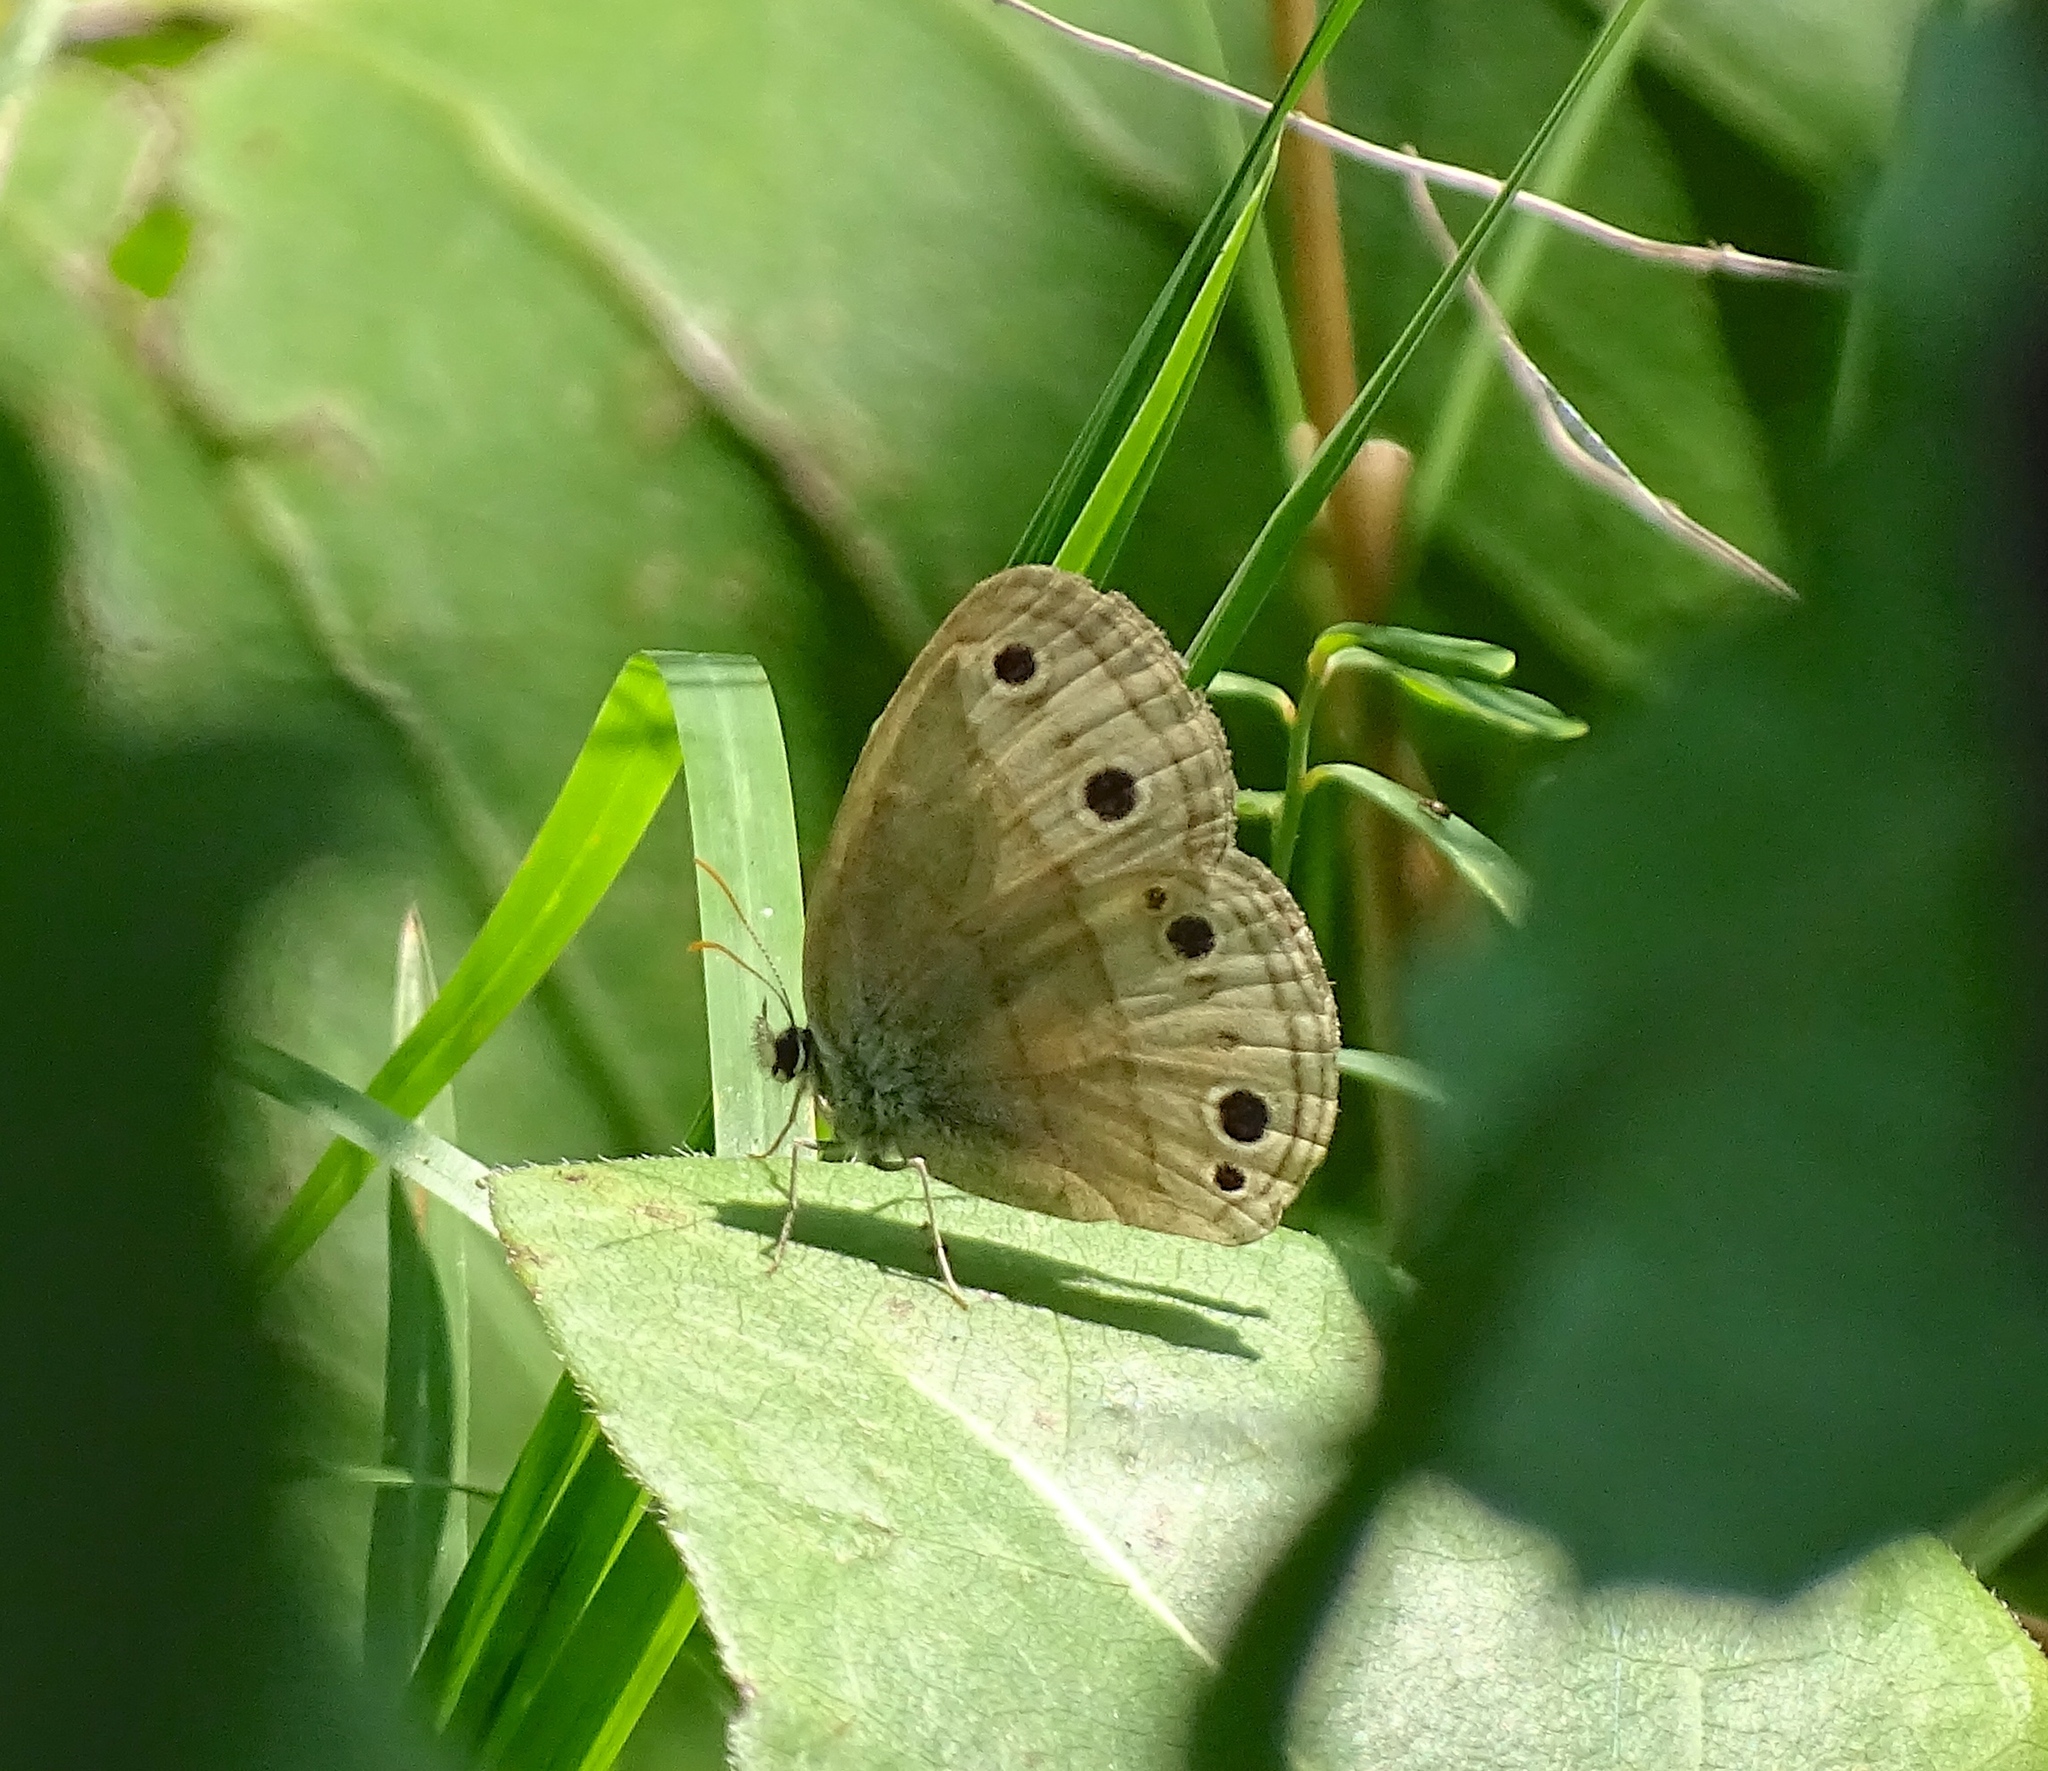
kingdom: Animalia
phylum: Arthropoda
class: Insecta
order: Lepidoptera
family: Nymphalidae
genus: Euptychia
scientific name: Euptychia cymela
